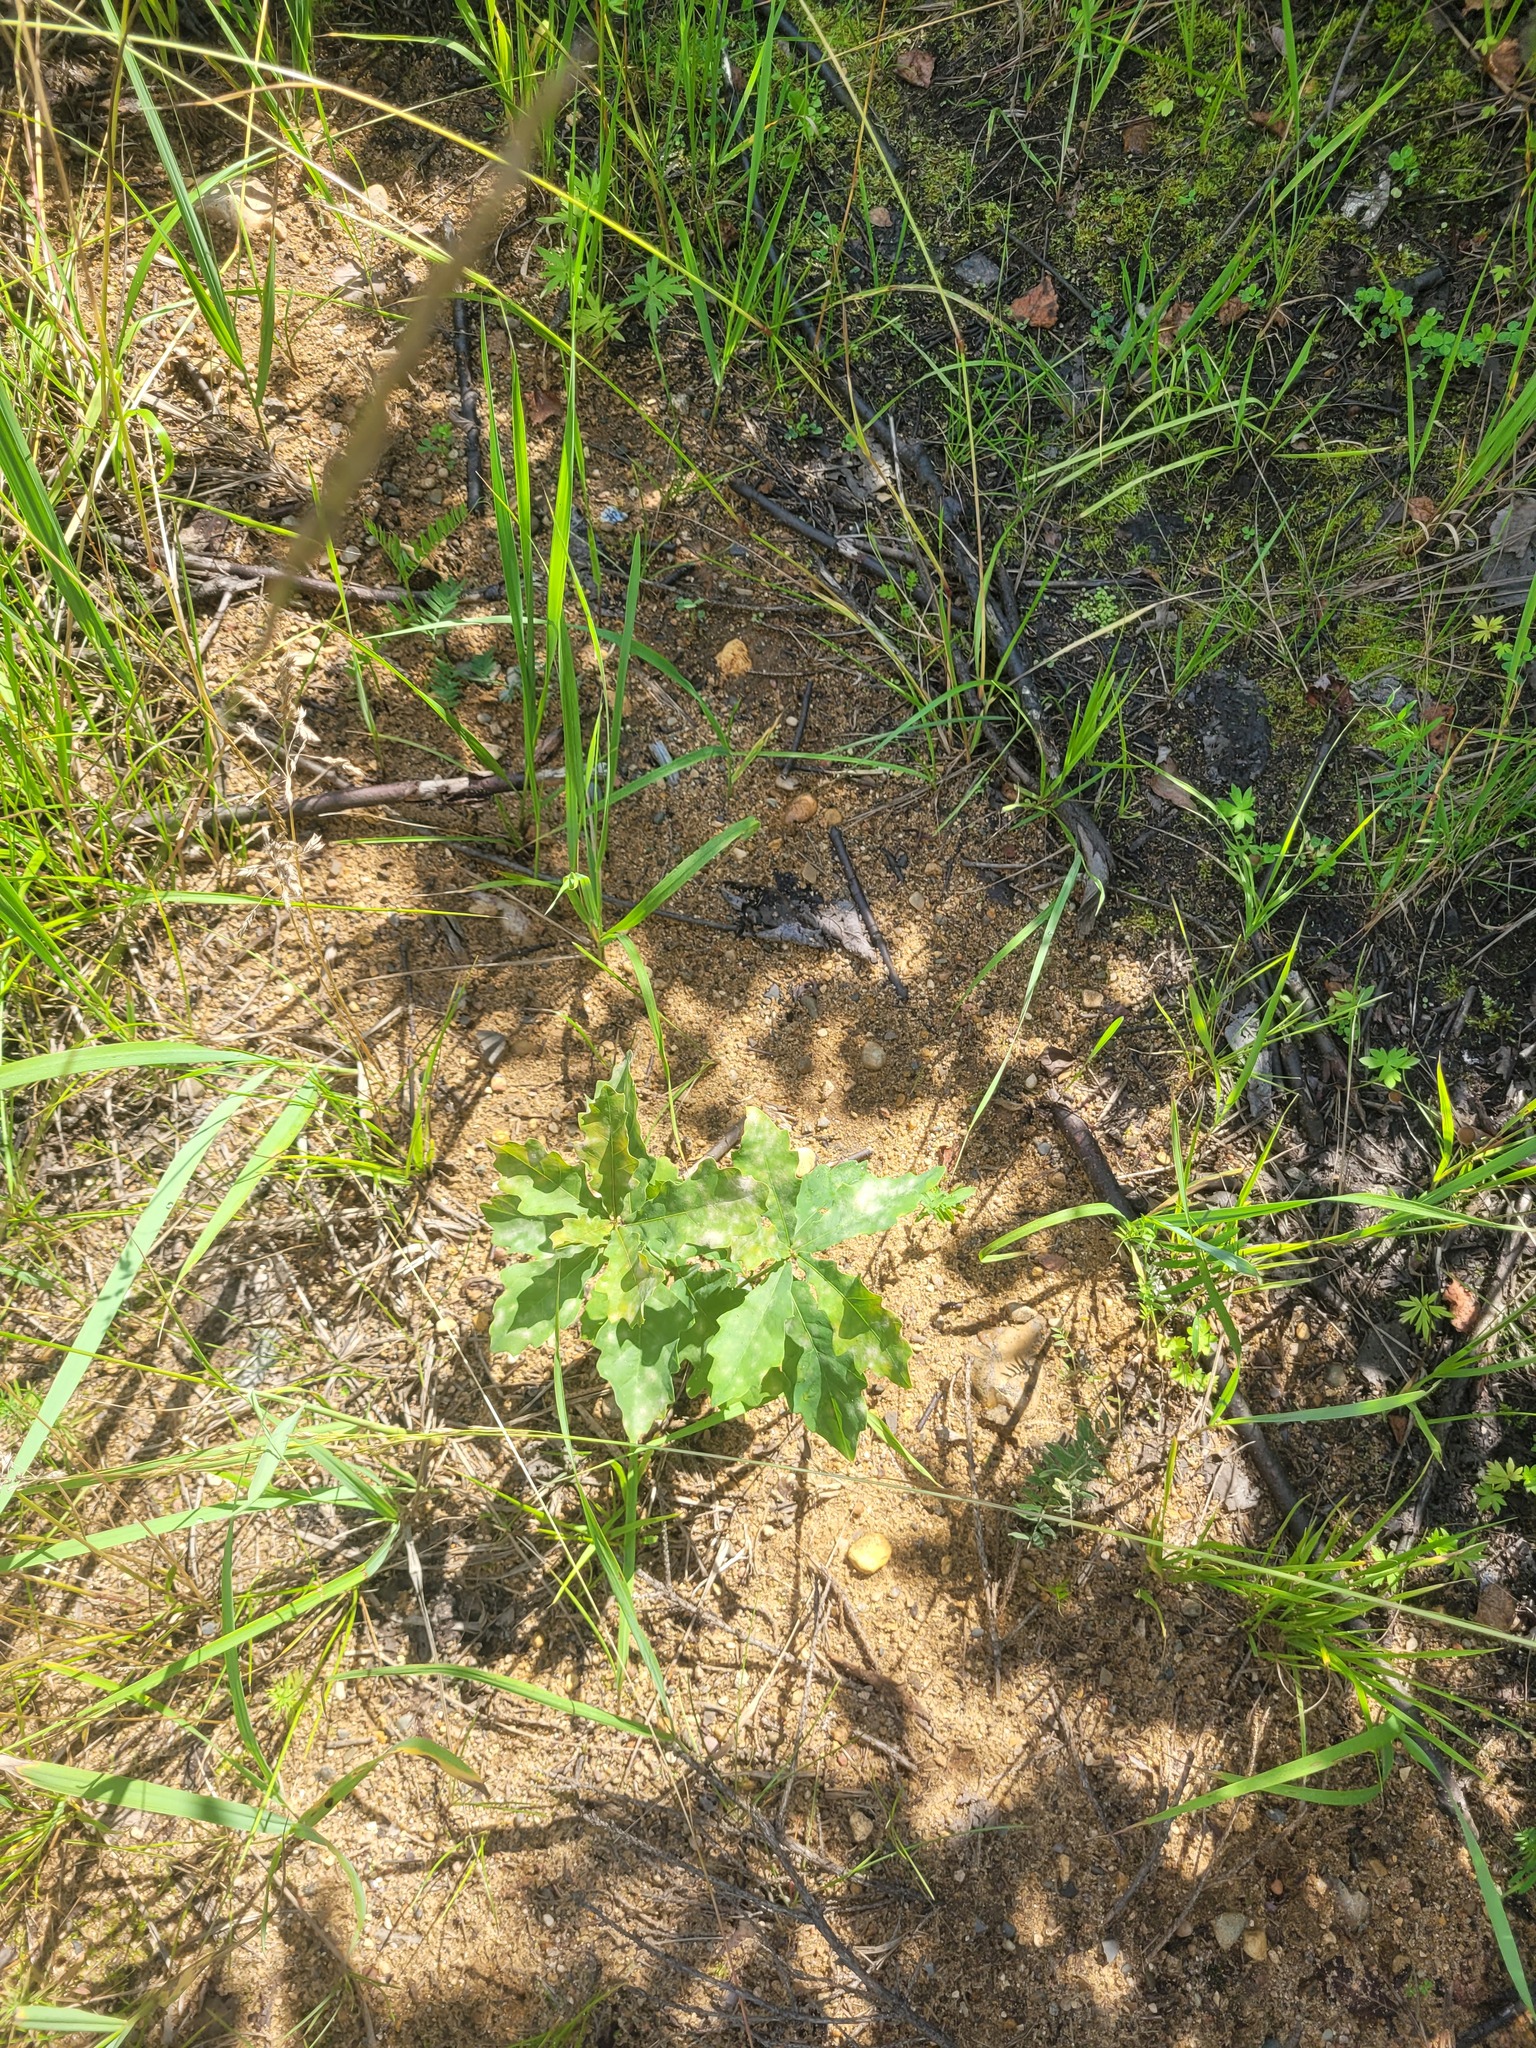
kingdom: Plantae
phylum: Tracheophyta
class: Magnoliopsida
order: Fagales
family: Fagaceae
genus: Quercus
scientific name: Quercus robur
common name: Pedunculate oak
